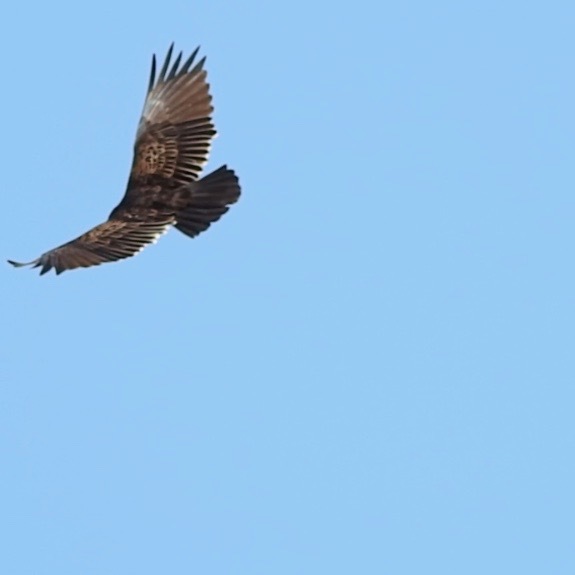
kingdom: Animalia
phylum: Chordata
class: Aves
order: Accipitriformes
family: Cathartidae
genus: Cathartes
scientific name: Cathartes aura
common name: Turkey vulture
